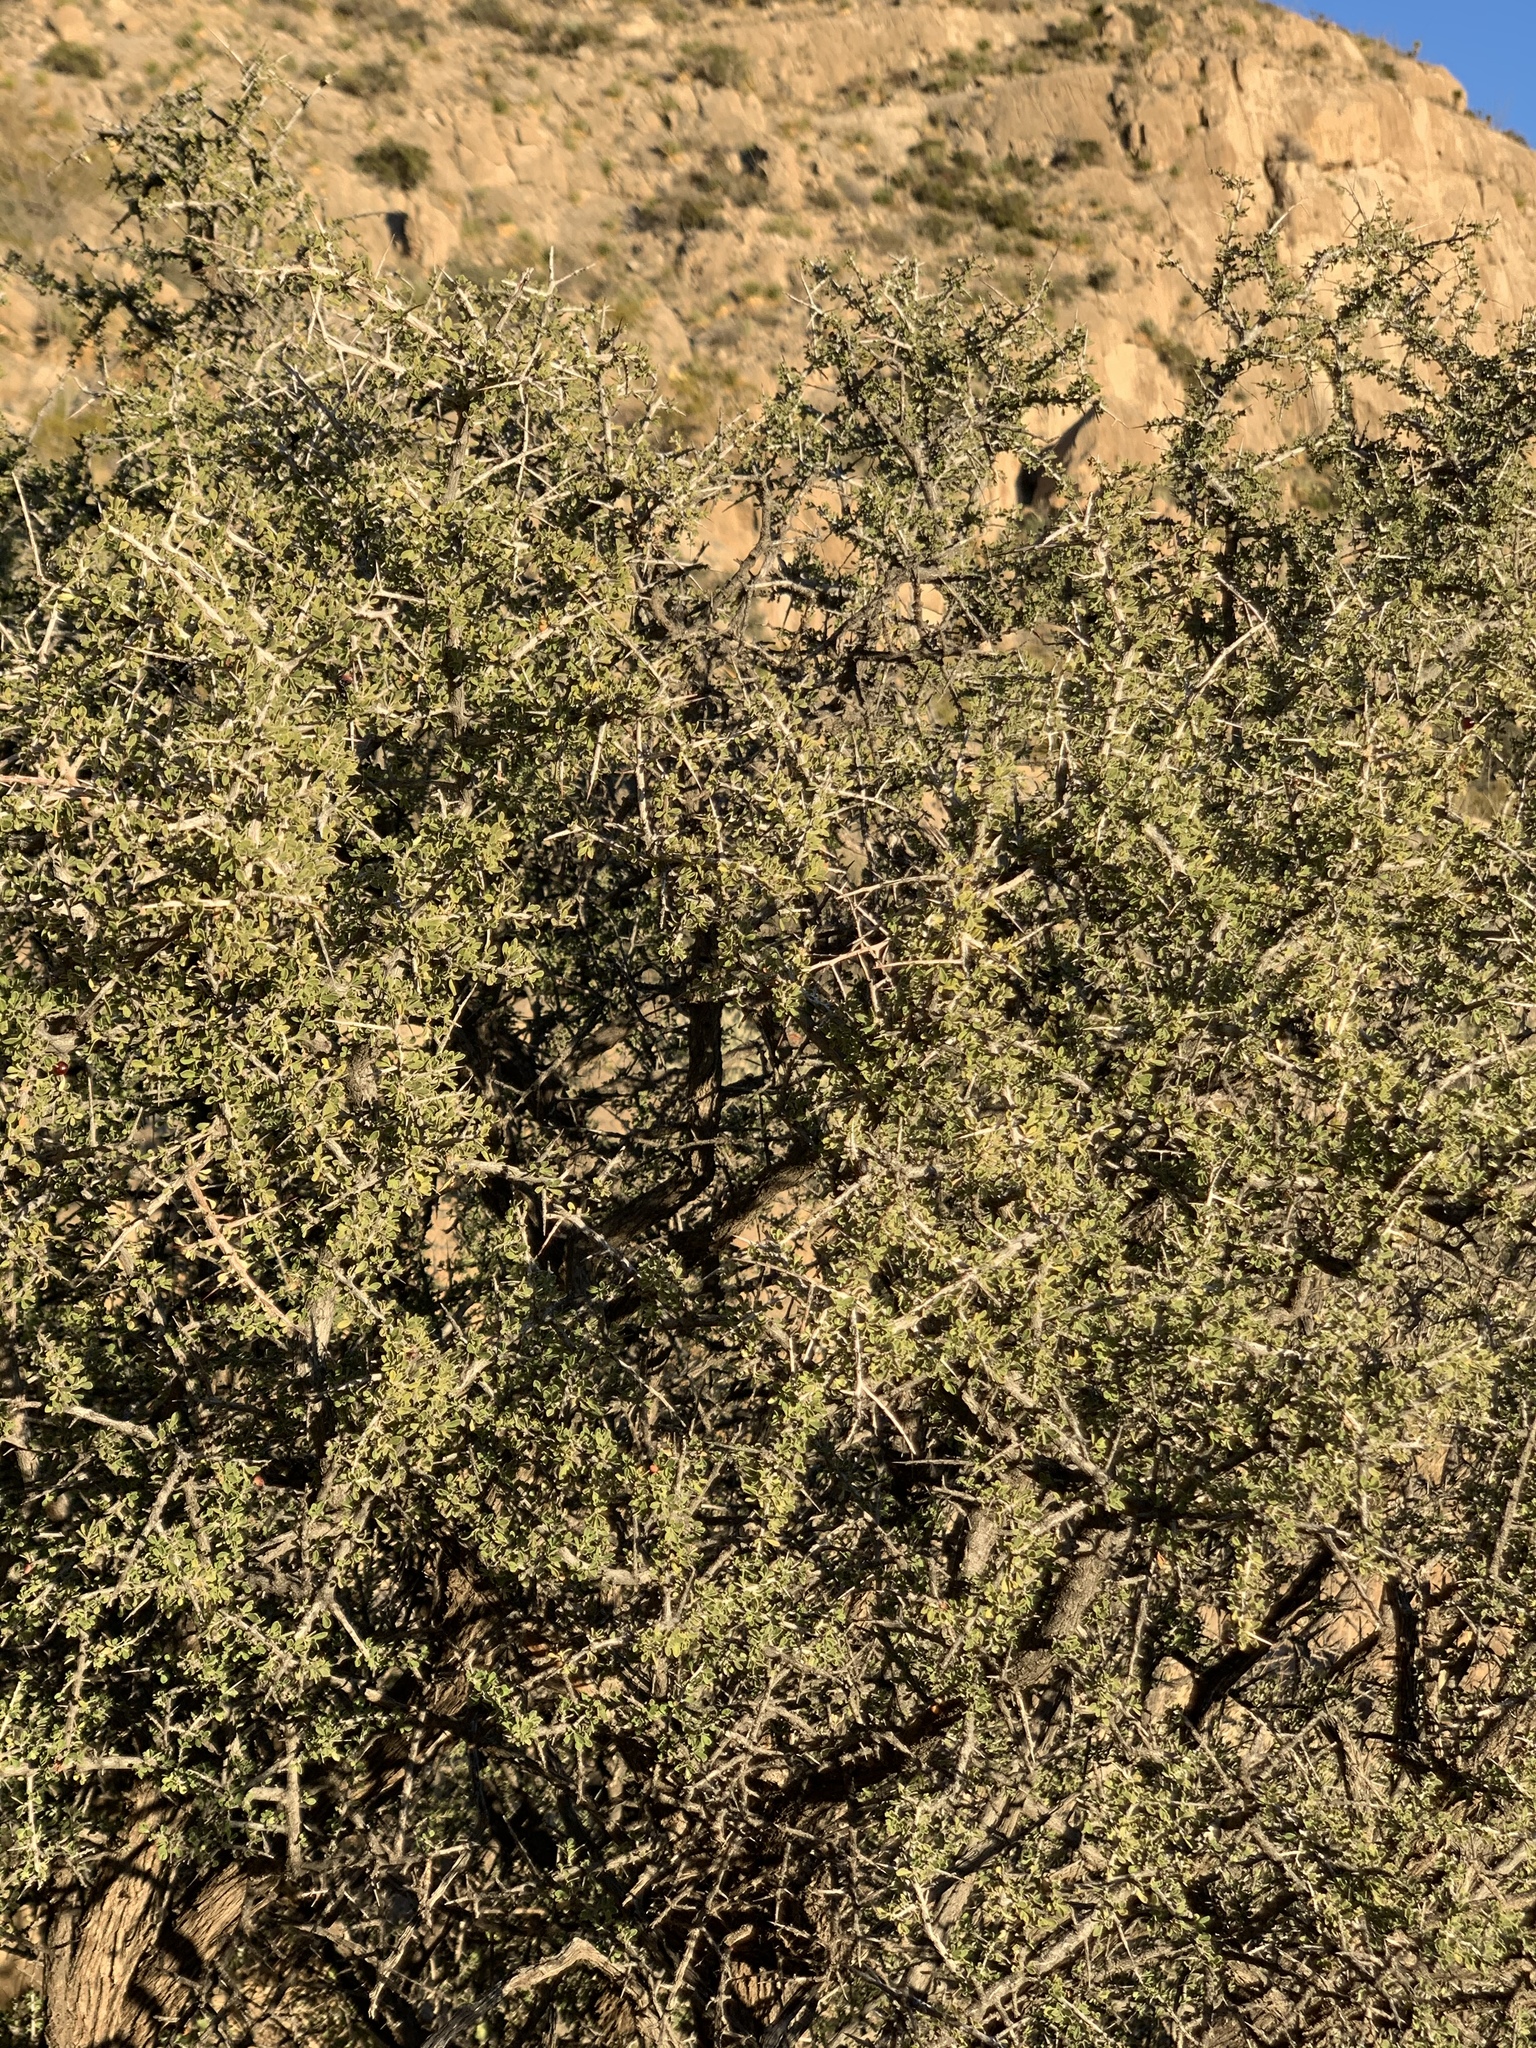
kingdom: Plantae
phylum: Tracheophyta
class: Magnoliopsida
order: Rosales
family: Rhamnaceae
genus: Condalia
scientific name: Condalia warnockii
